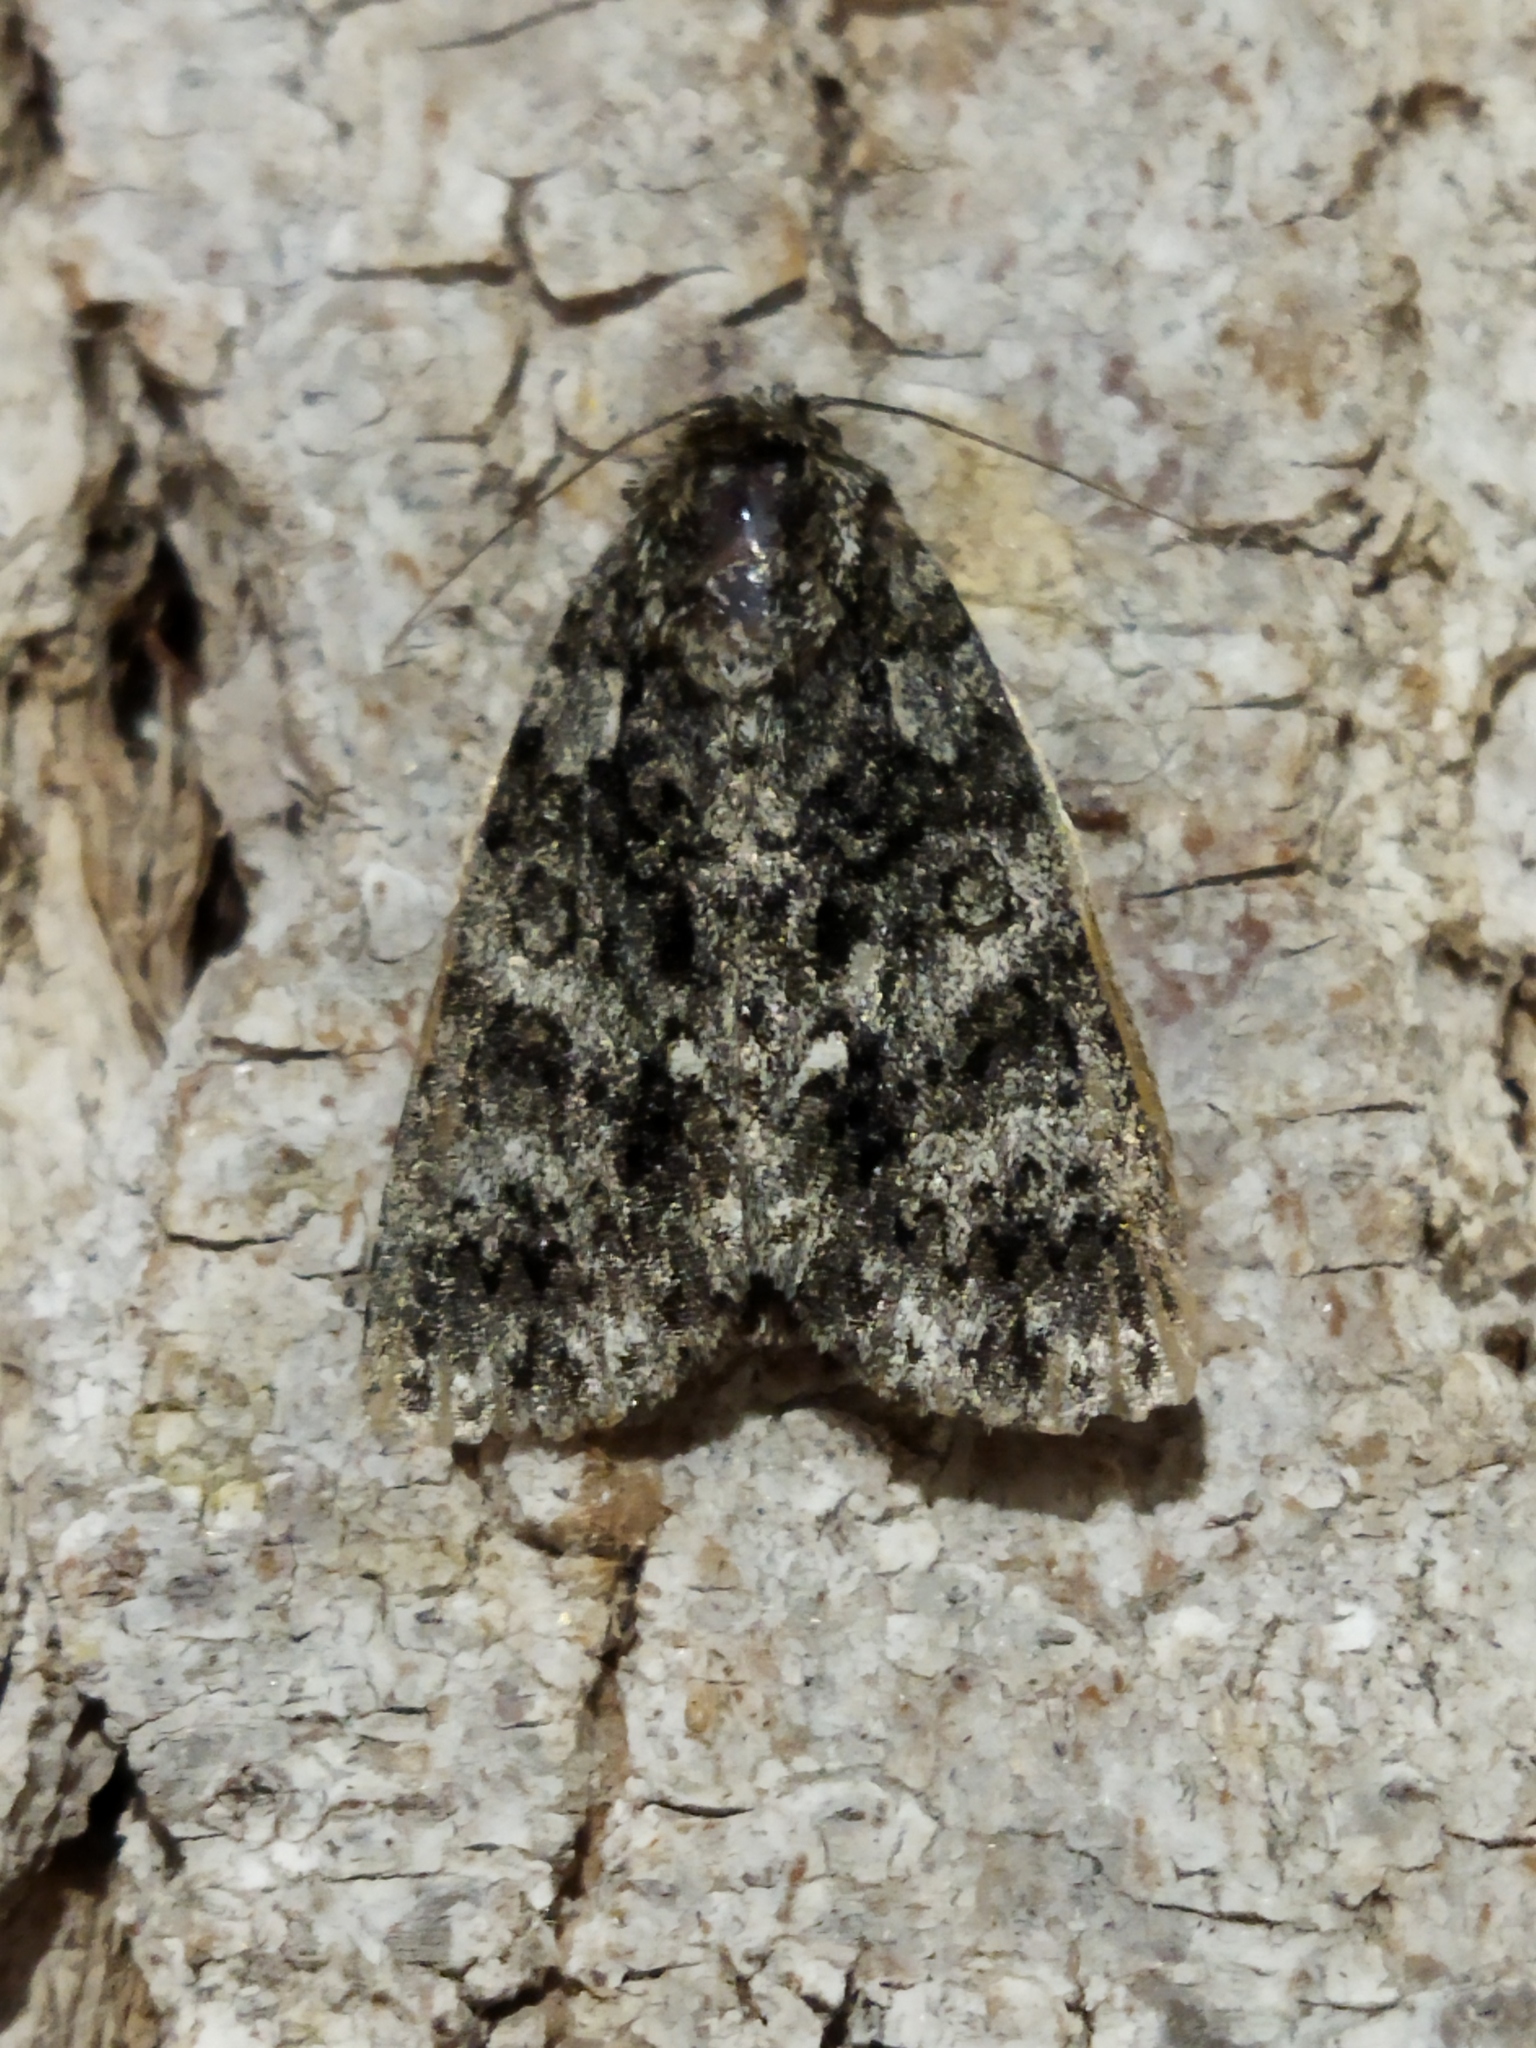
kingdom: Animalia
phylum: Arthropoda
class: Insecta
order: Lepidoptera
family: Noctuidae
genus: Acronicta
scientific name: Acronicta rumicis
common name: Knot grass
